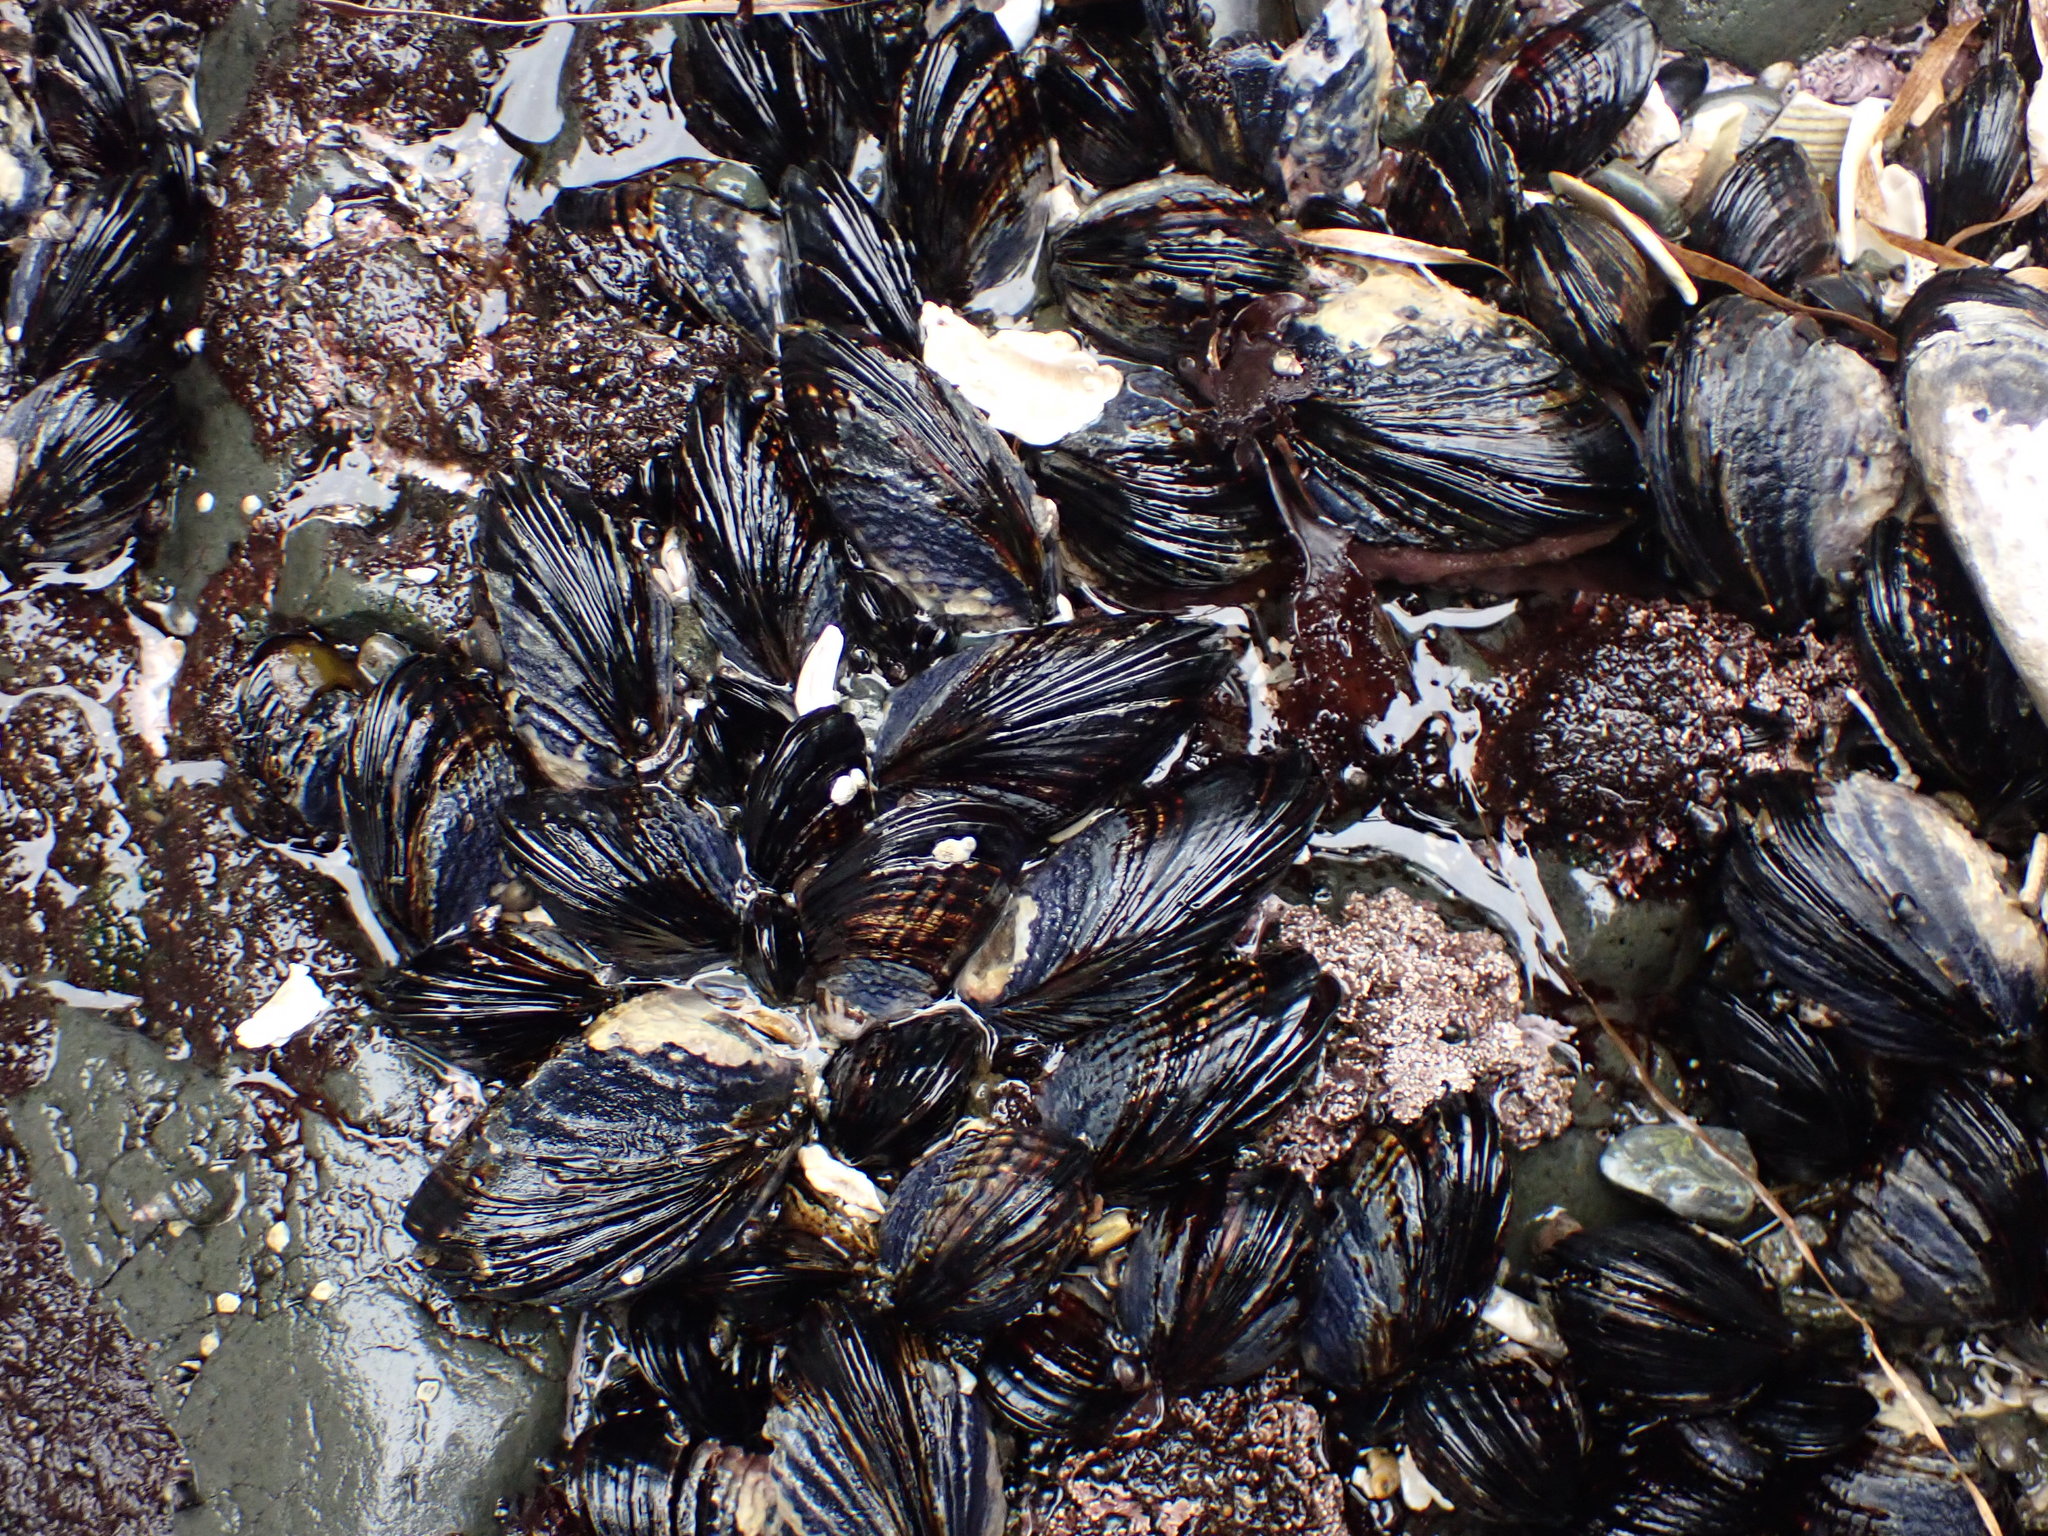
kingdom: Animalia
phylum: Mollusca
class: Bivalvia
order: Mytilida
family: Mytilidae
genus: Mytilus
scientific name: Mytilus californianus
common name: California mussel
